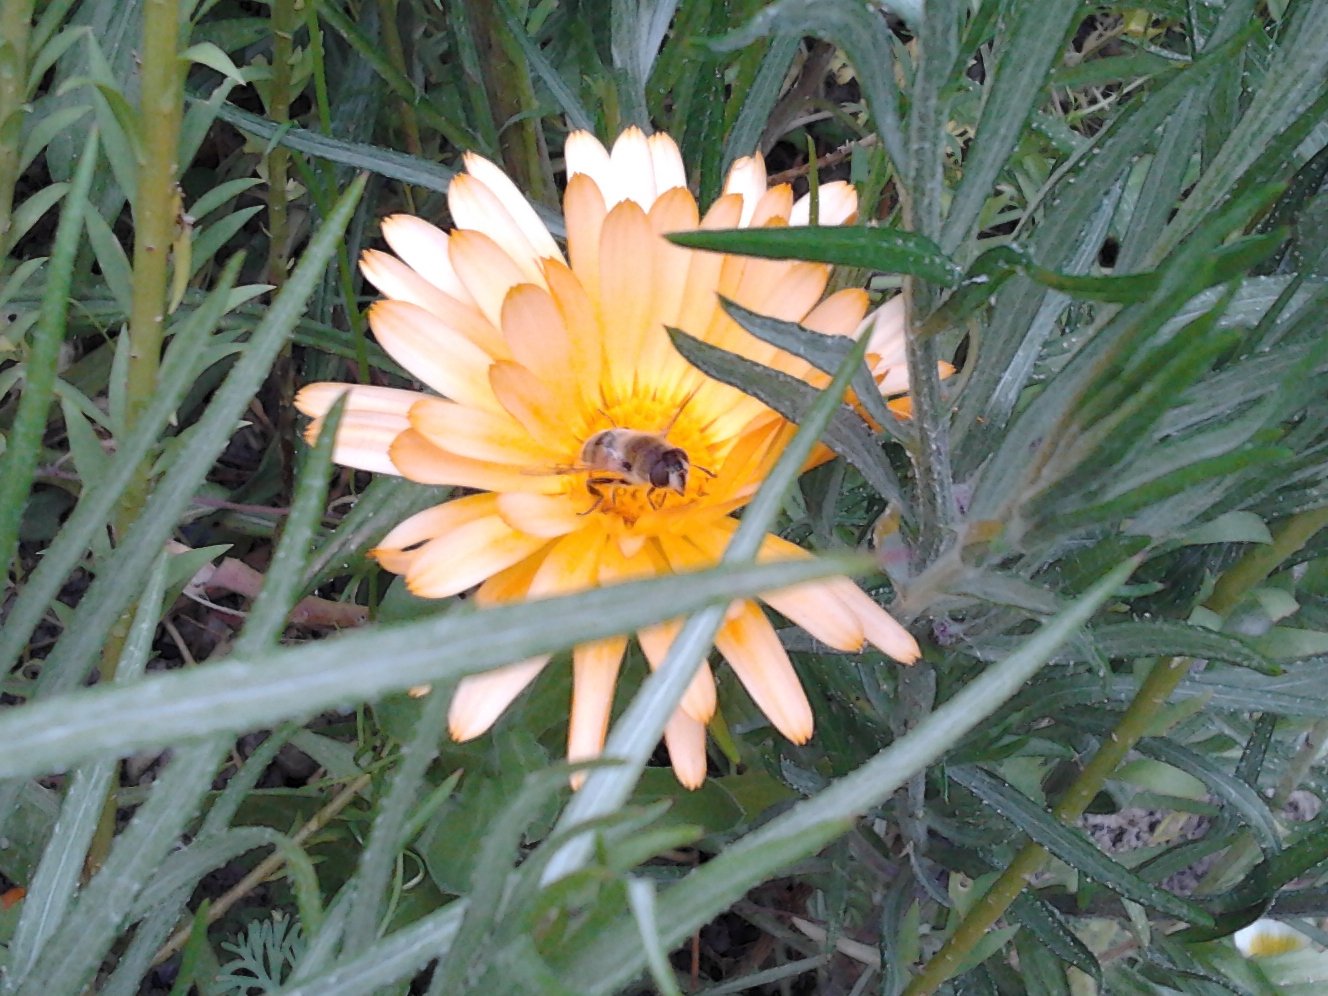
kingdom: Animalia
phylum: Arthropoda
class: Insecta
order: Diptera
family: Syrphidae
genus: Eristalis
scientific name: Eristalis tenax
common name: Drone fly
